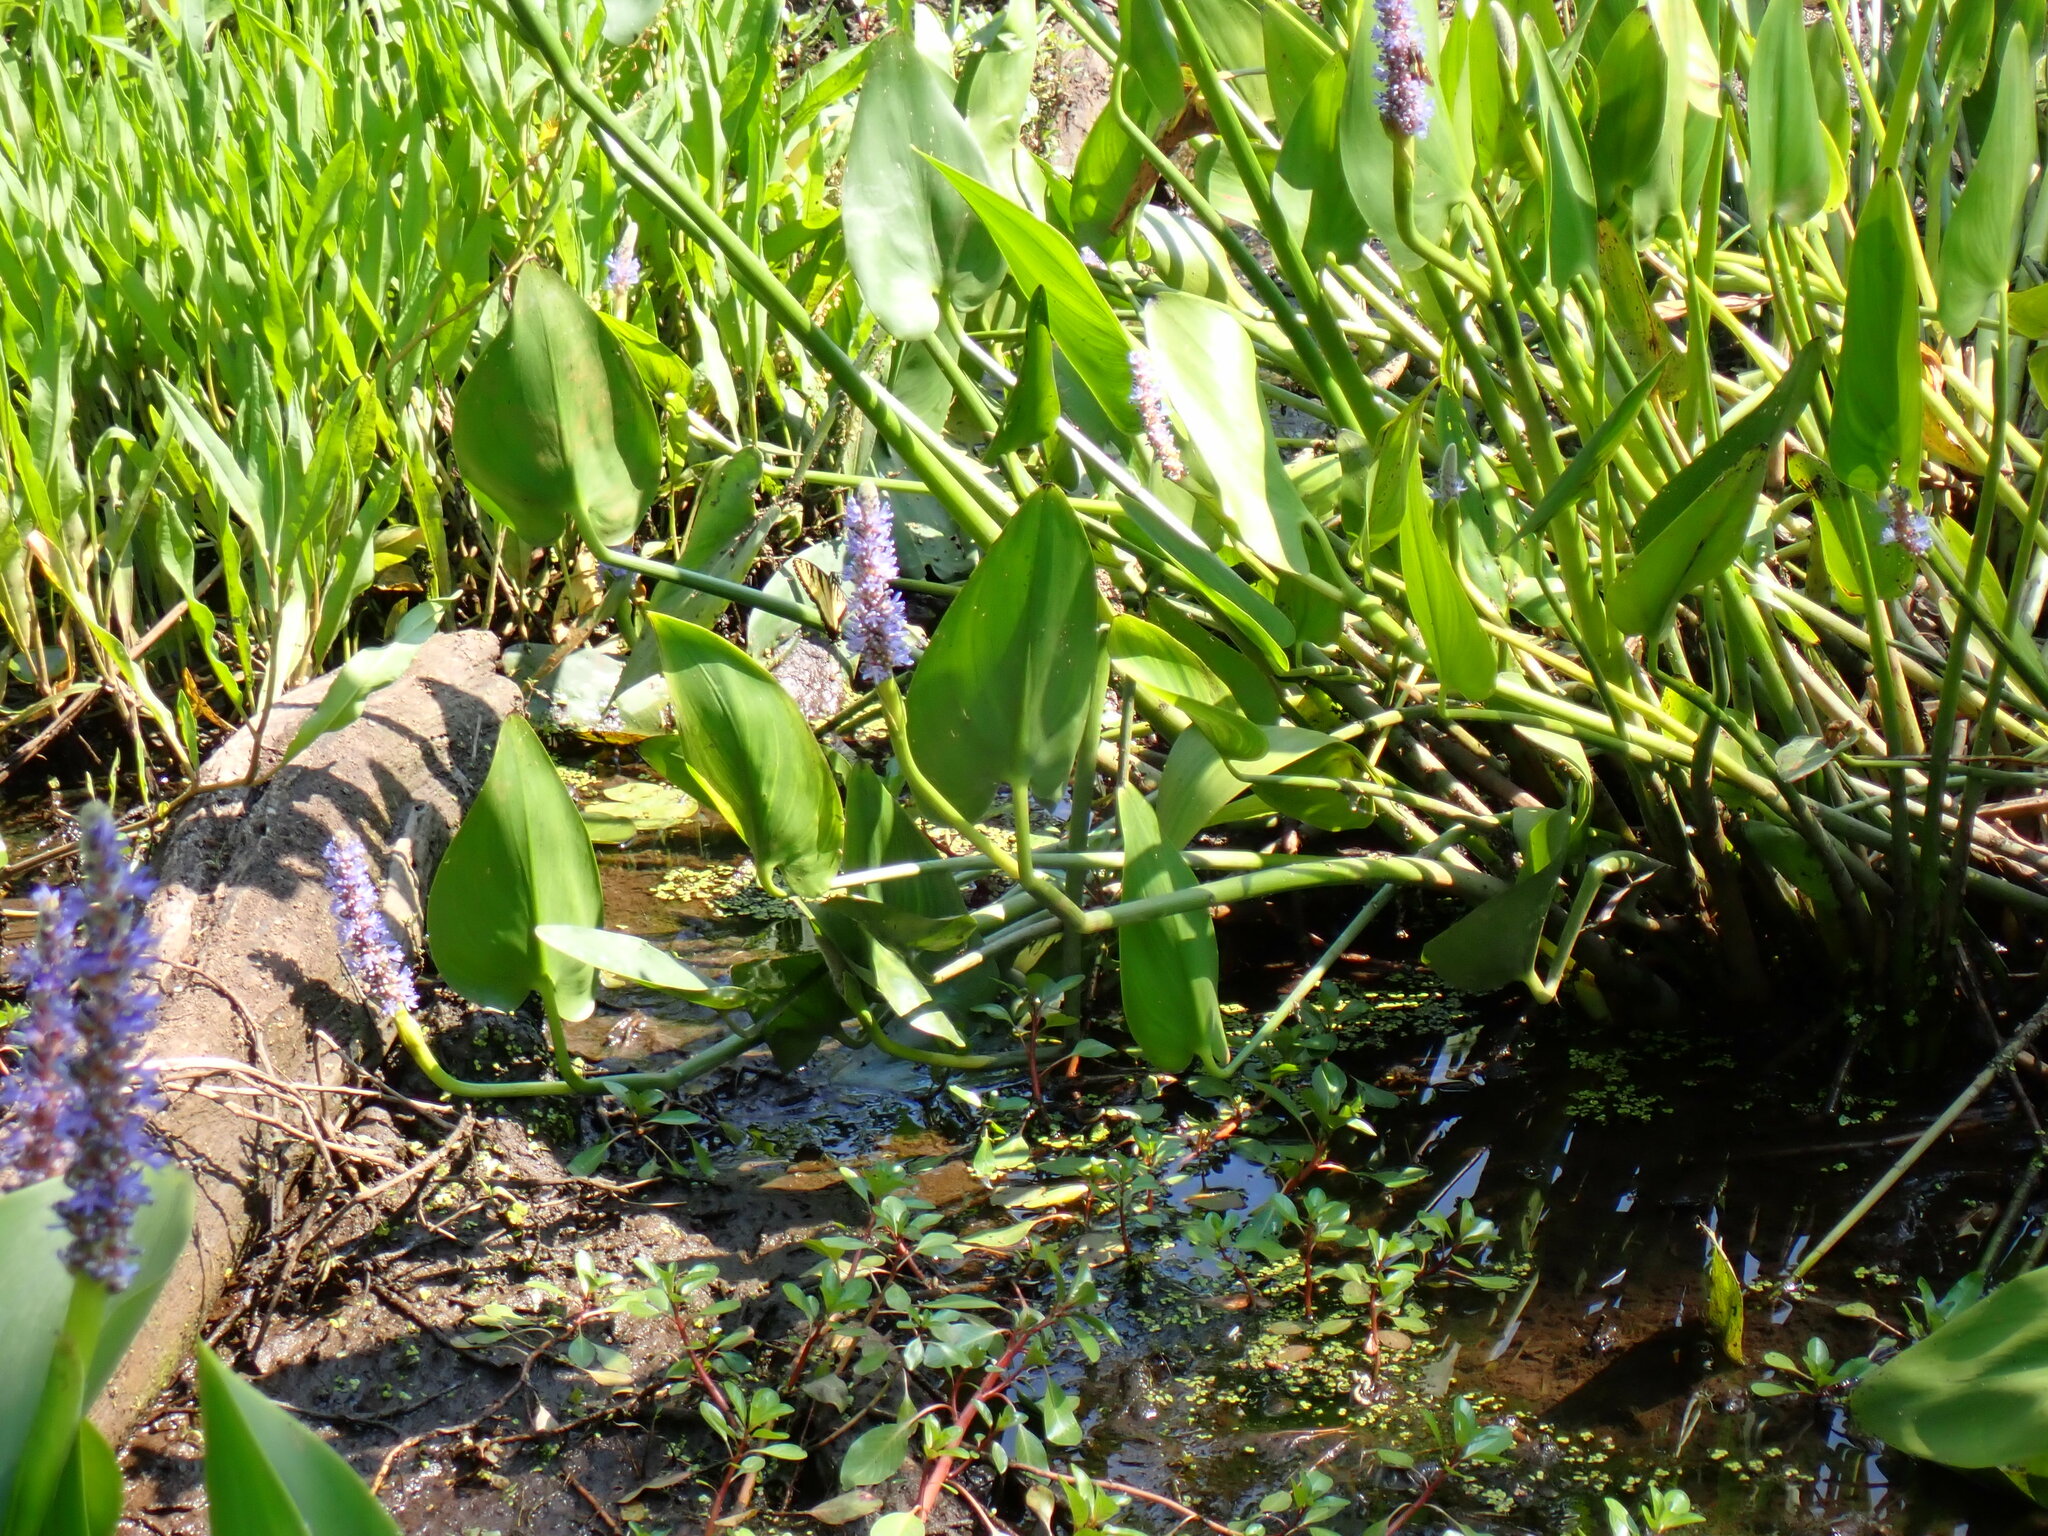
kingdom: Plantae
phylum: Tracheophyta
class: Liliopsida
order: Commelinales
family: Pontederiaceae
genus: Pontederia
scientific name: Pontederia cordata
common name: Pickerelweed
